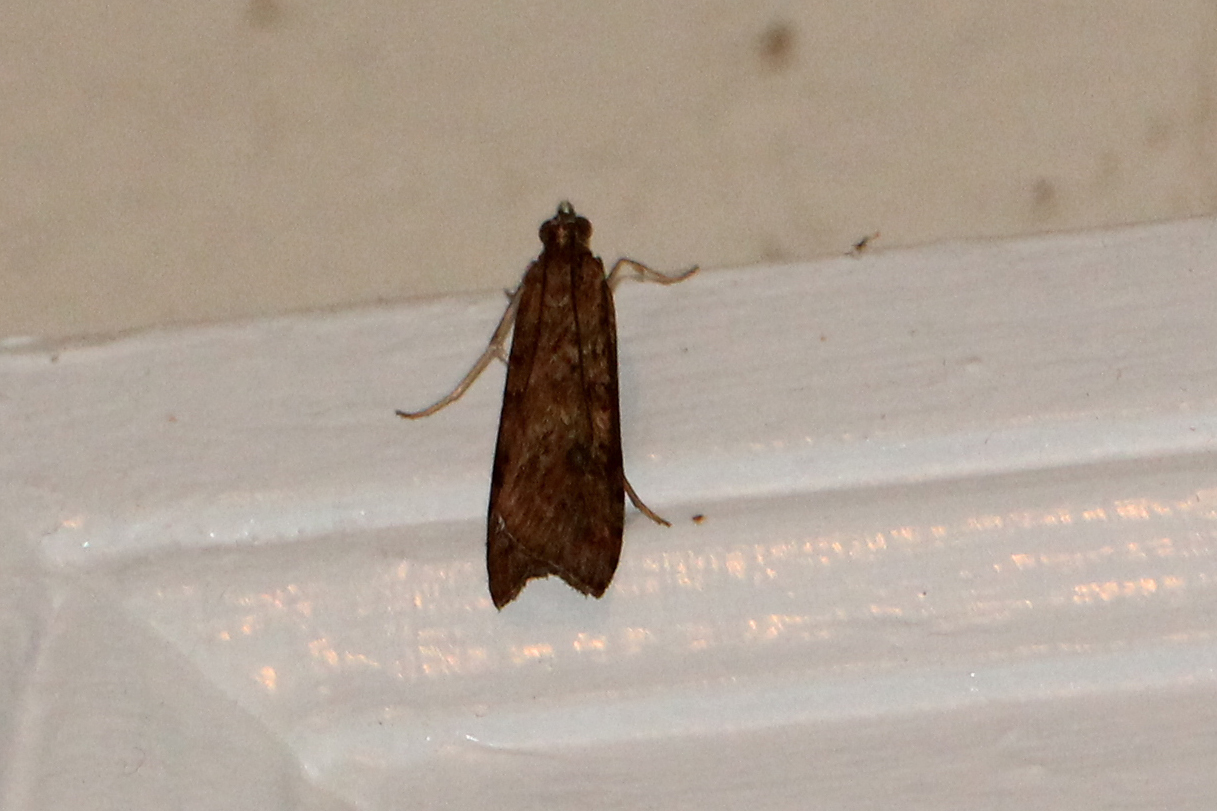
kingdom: Animalia
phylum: Arthropoda
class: Insecta
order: Lepidoptera
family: Crambidae
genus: Nomophila
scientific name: Nomophila nearctica
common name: American rush veneer
